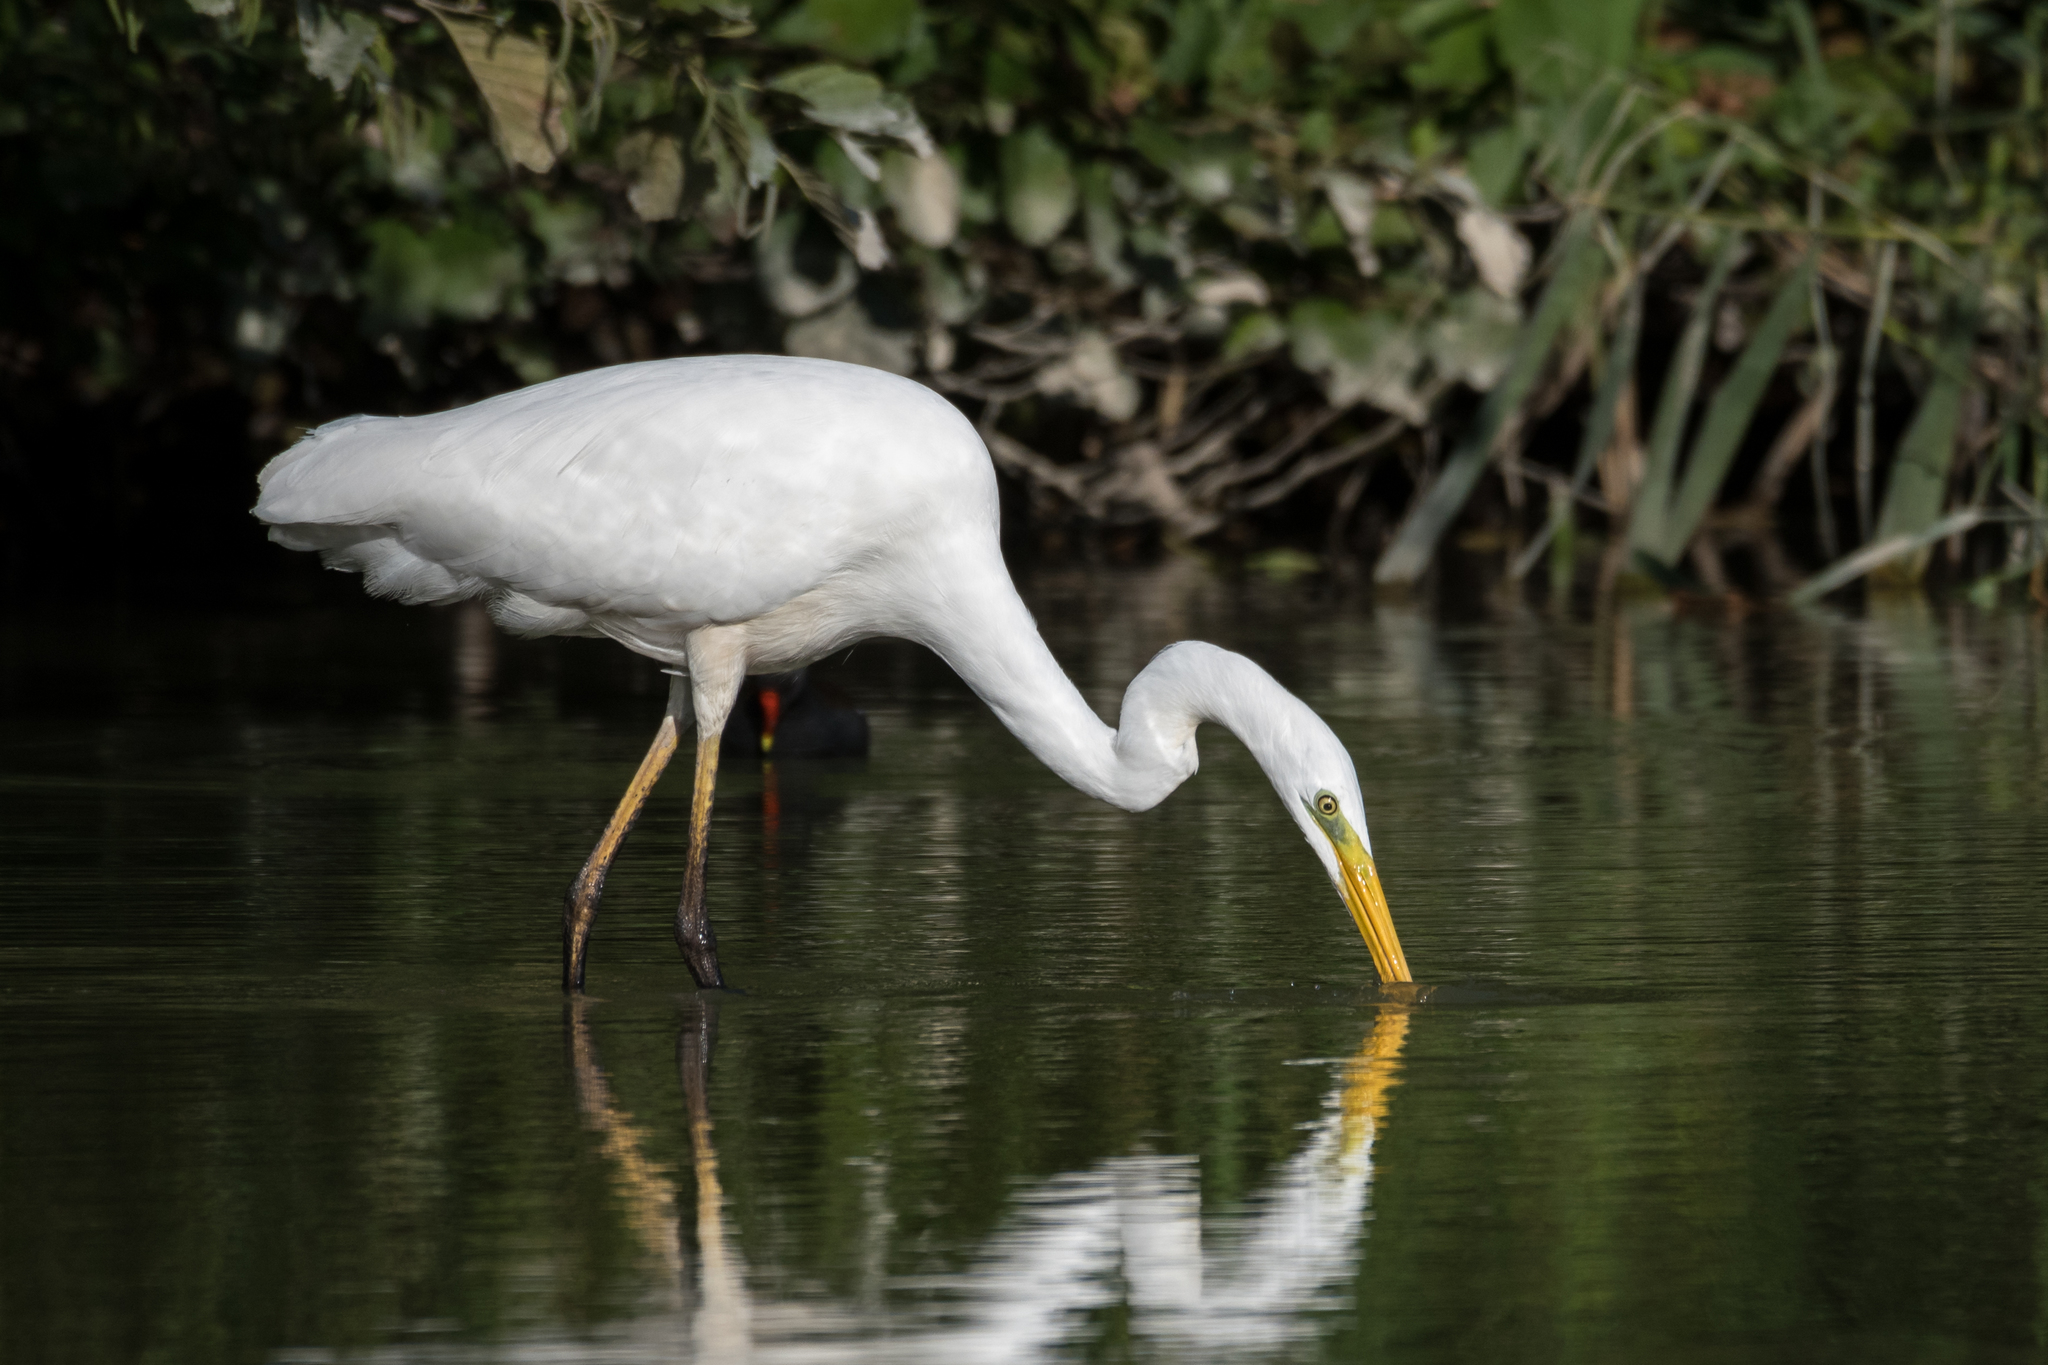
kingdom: Animalia
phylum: Chordata
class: Aves
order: Pelecaniformes
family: Ardeidae
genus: Ardea
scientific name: Ardea alba
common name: Great egret
